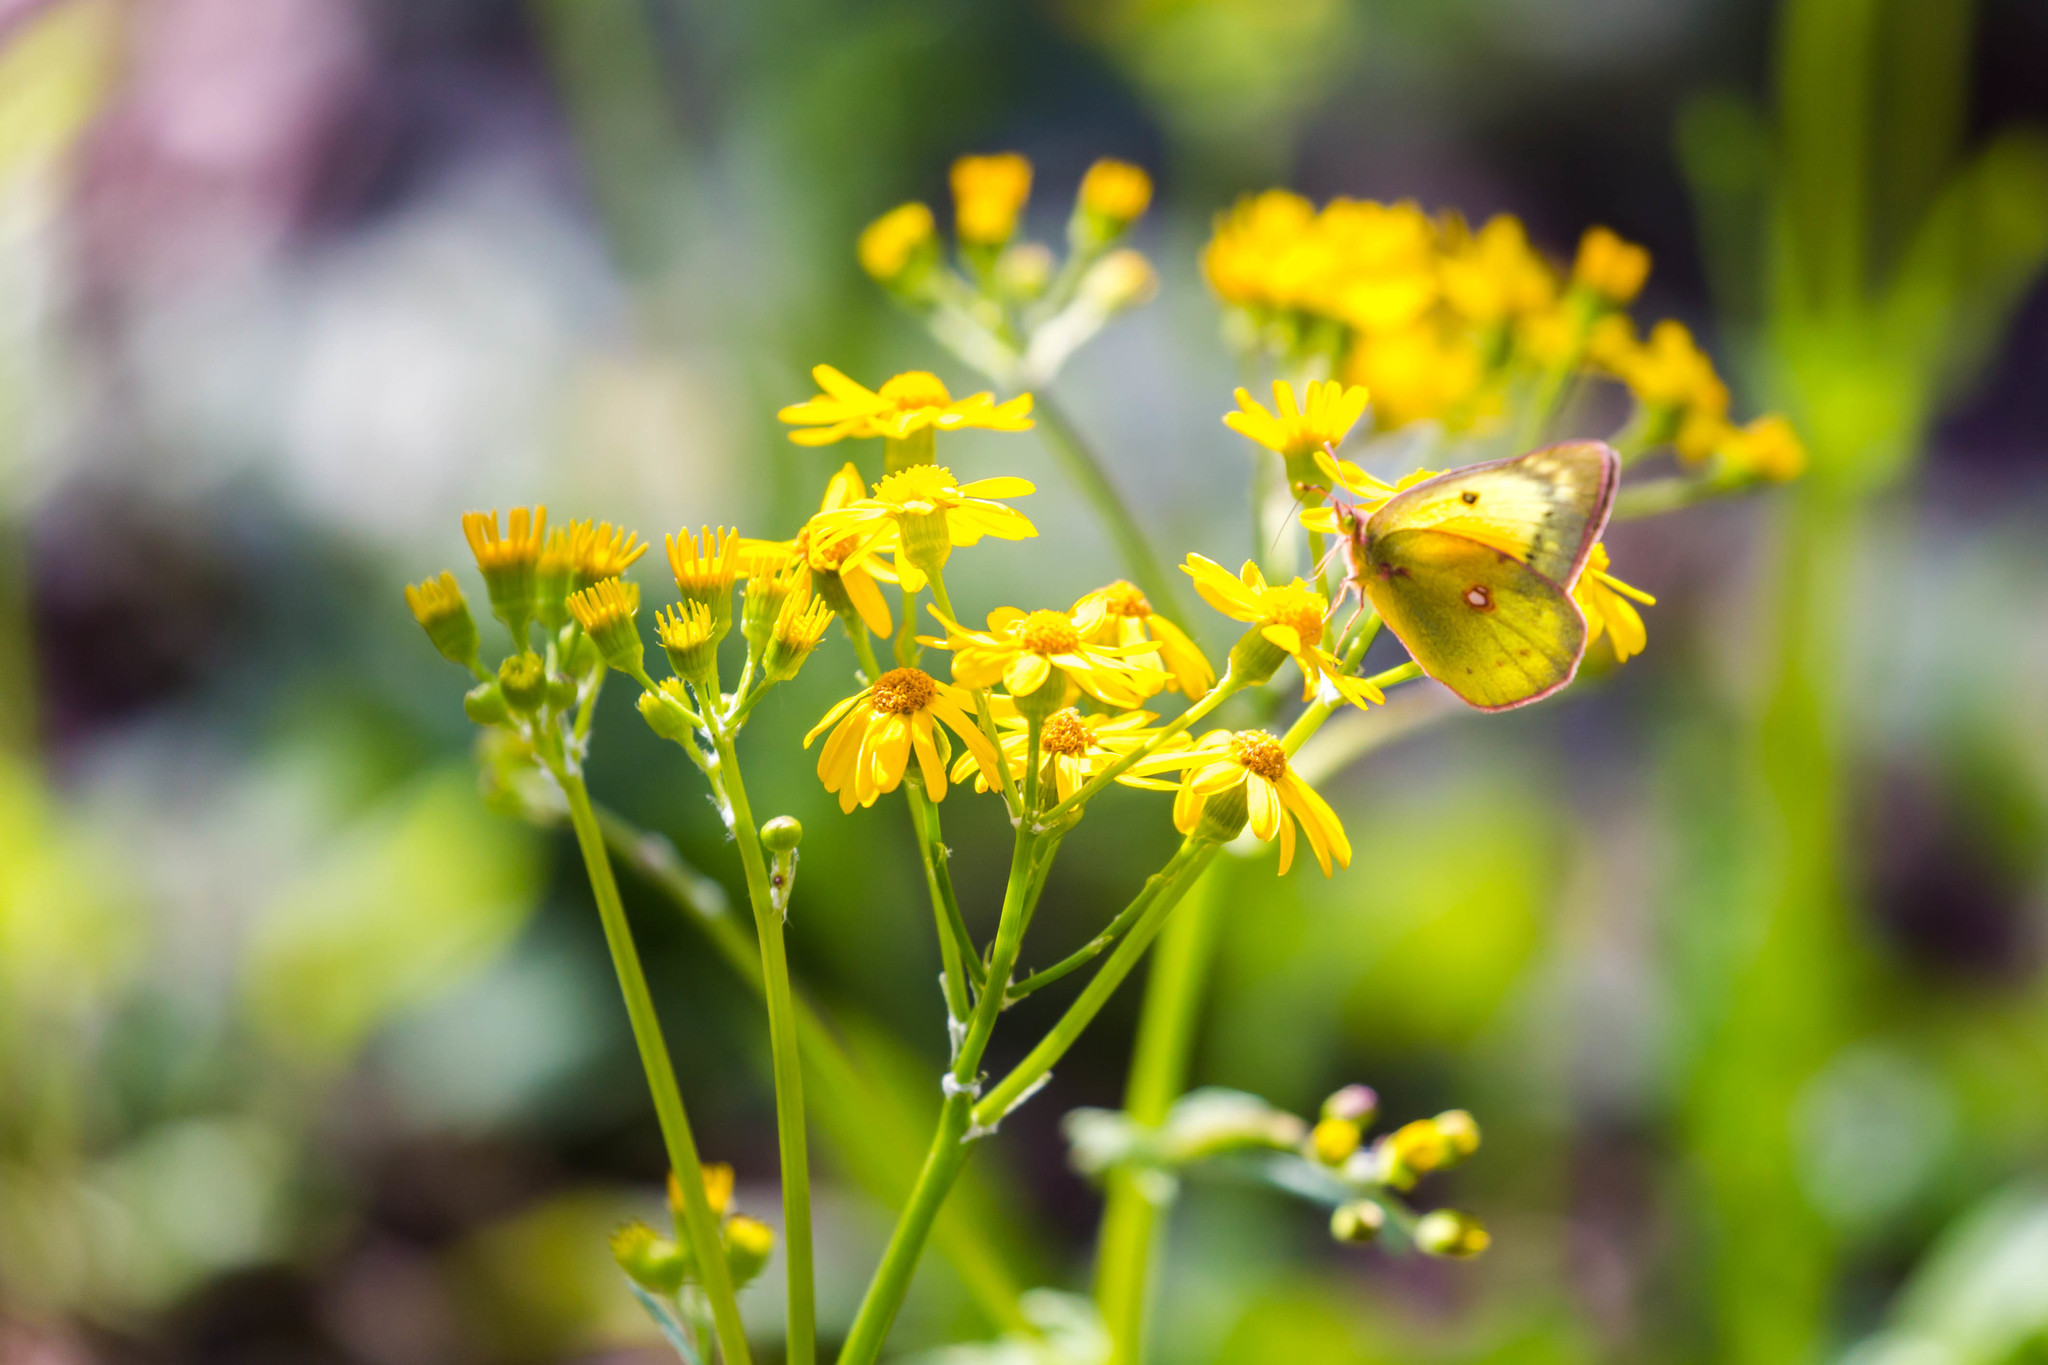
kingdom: Animalia
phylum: Arthropoda
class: Insecta
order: Lepidoptera
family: Pieridae
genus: Colias
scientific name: Colias eurytheme
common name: Alfalfa butterfly
